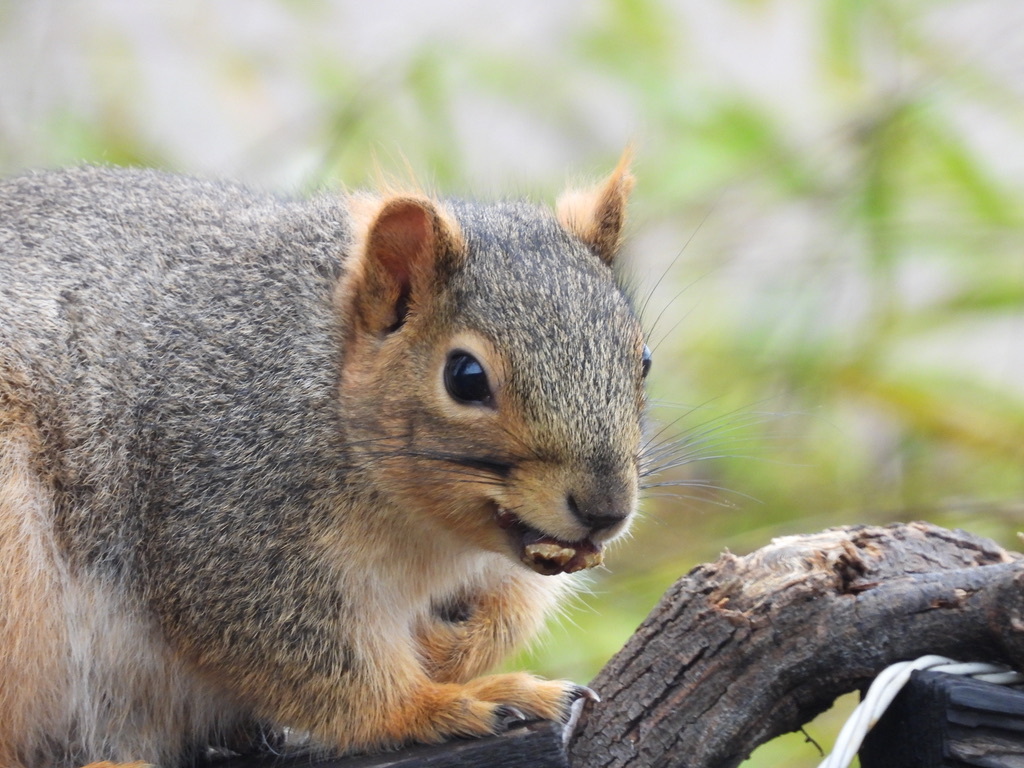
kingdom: Animalia
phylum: Chordata
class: Mammalia
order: Rodentia
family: Sciuridae
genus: Sciurus
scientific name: Sciurus niger
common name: Fox squirrel
